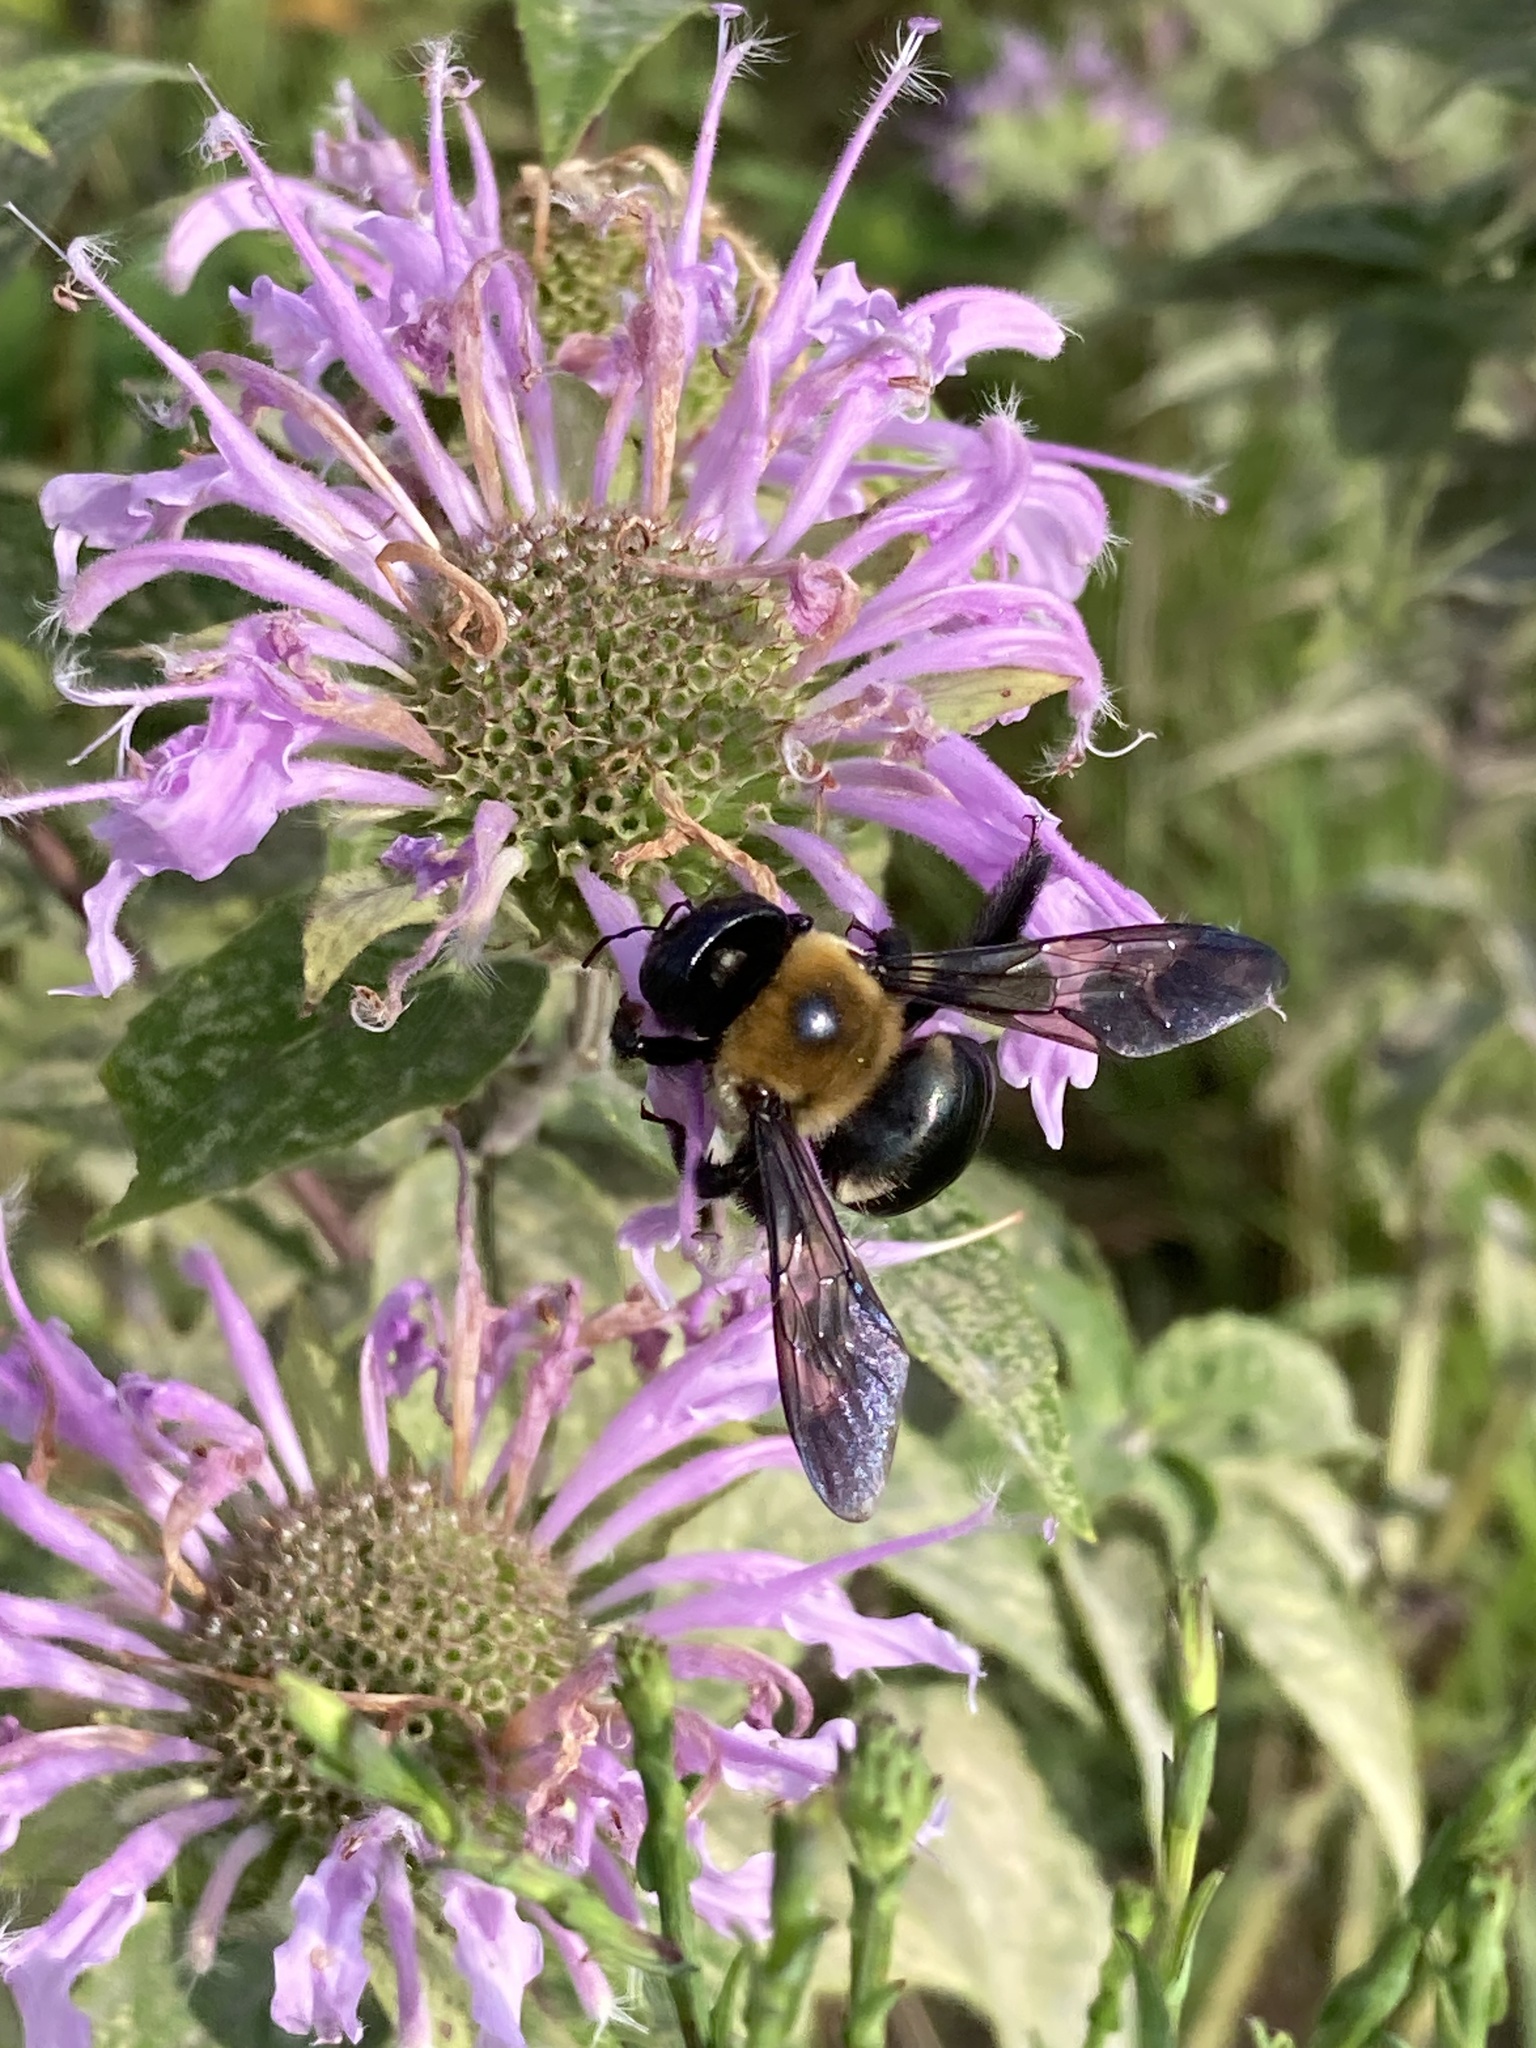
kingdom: Animalia
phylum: Arthropoda
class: Insecta
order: Hymenoptera
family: Apidae
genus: Xylocopa
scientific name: Xylocopa virginica
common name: Carpenter bee
